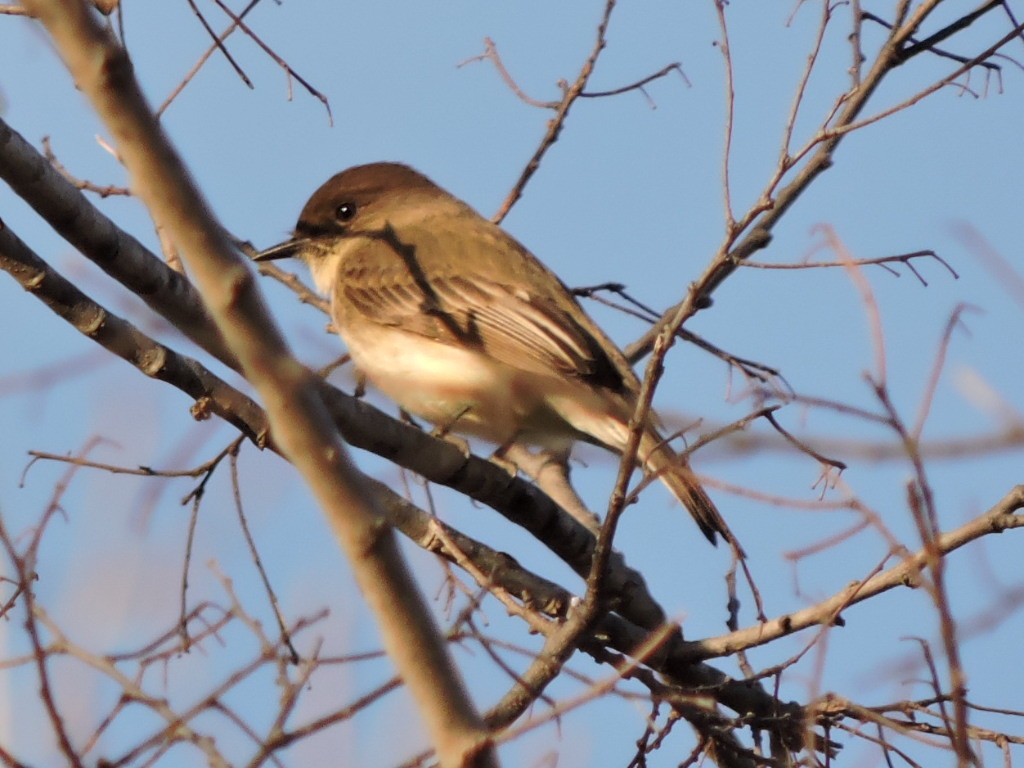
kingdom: Animalia
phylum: Chordata
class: Aves
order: Passeriformes
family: Tyrannidae
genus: Sayornis
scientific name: Sayornis phoebe
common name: Eastern phoebe
